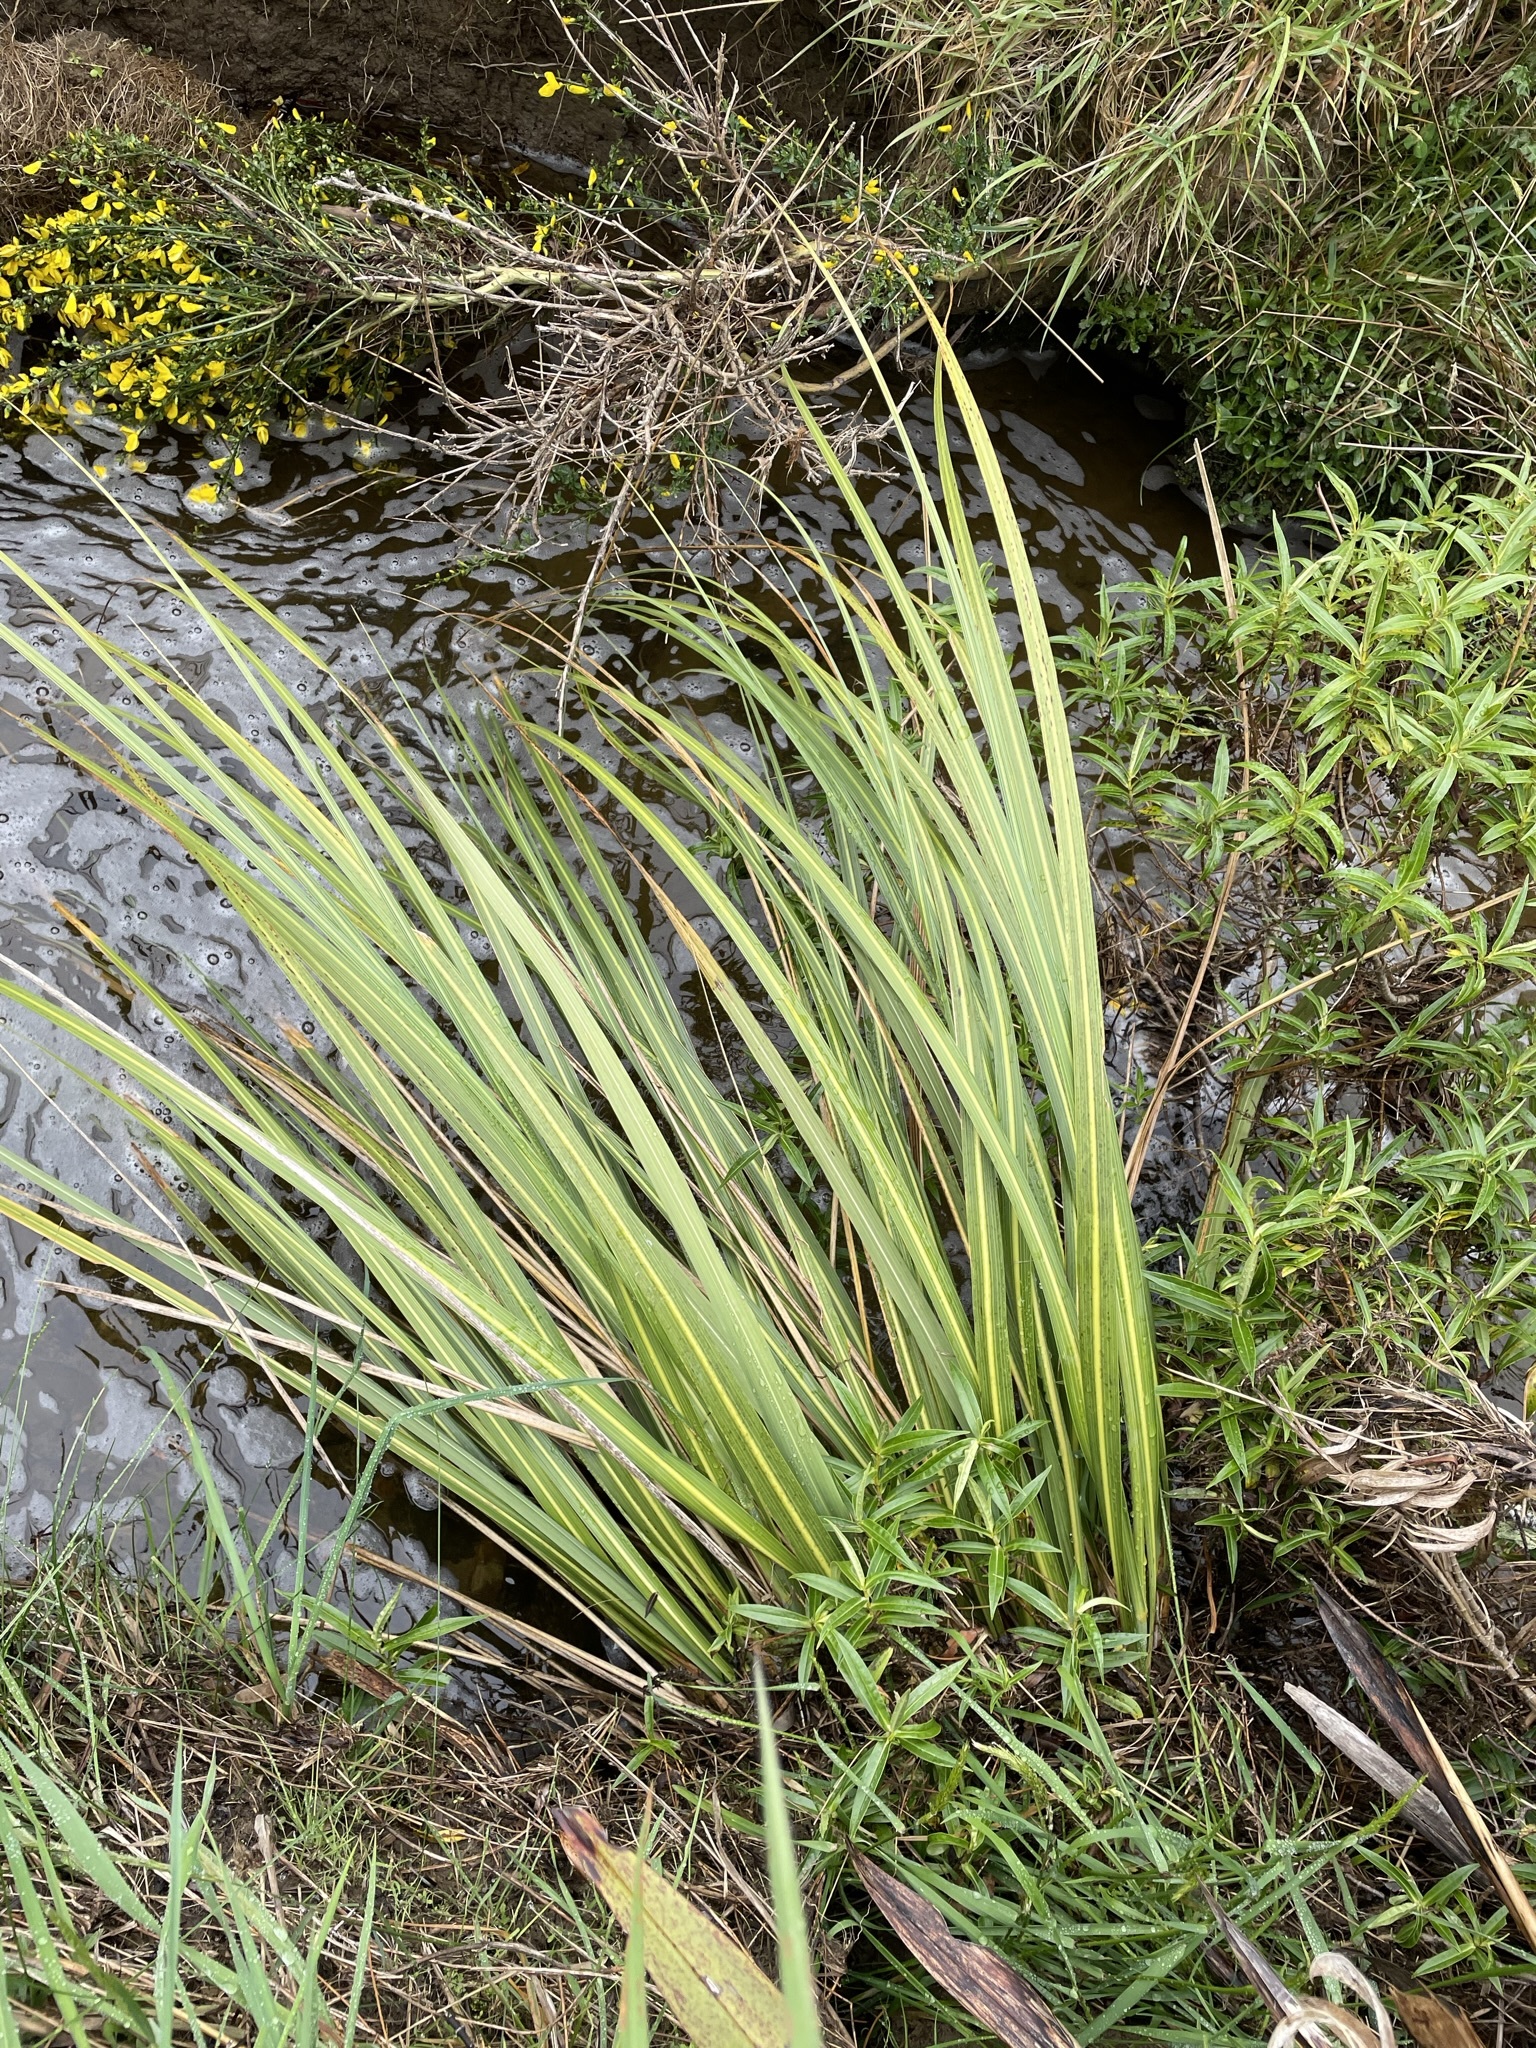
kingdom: Plantae
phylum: Tracheophyta
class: Liliopsida
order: Poales
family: Poaceae
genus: Austroderia
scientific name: Austroderia richardii
